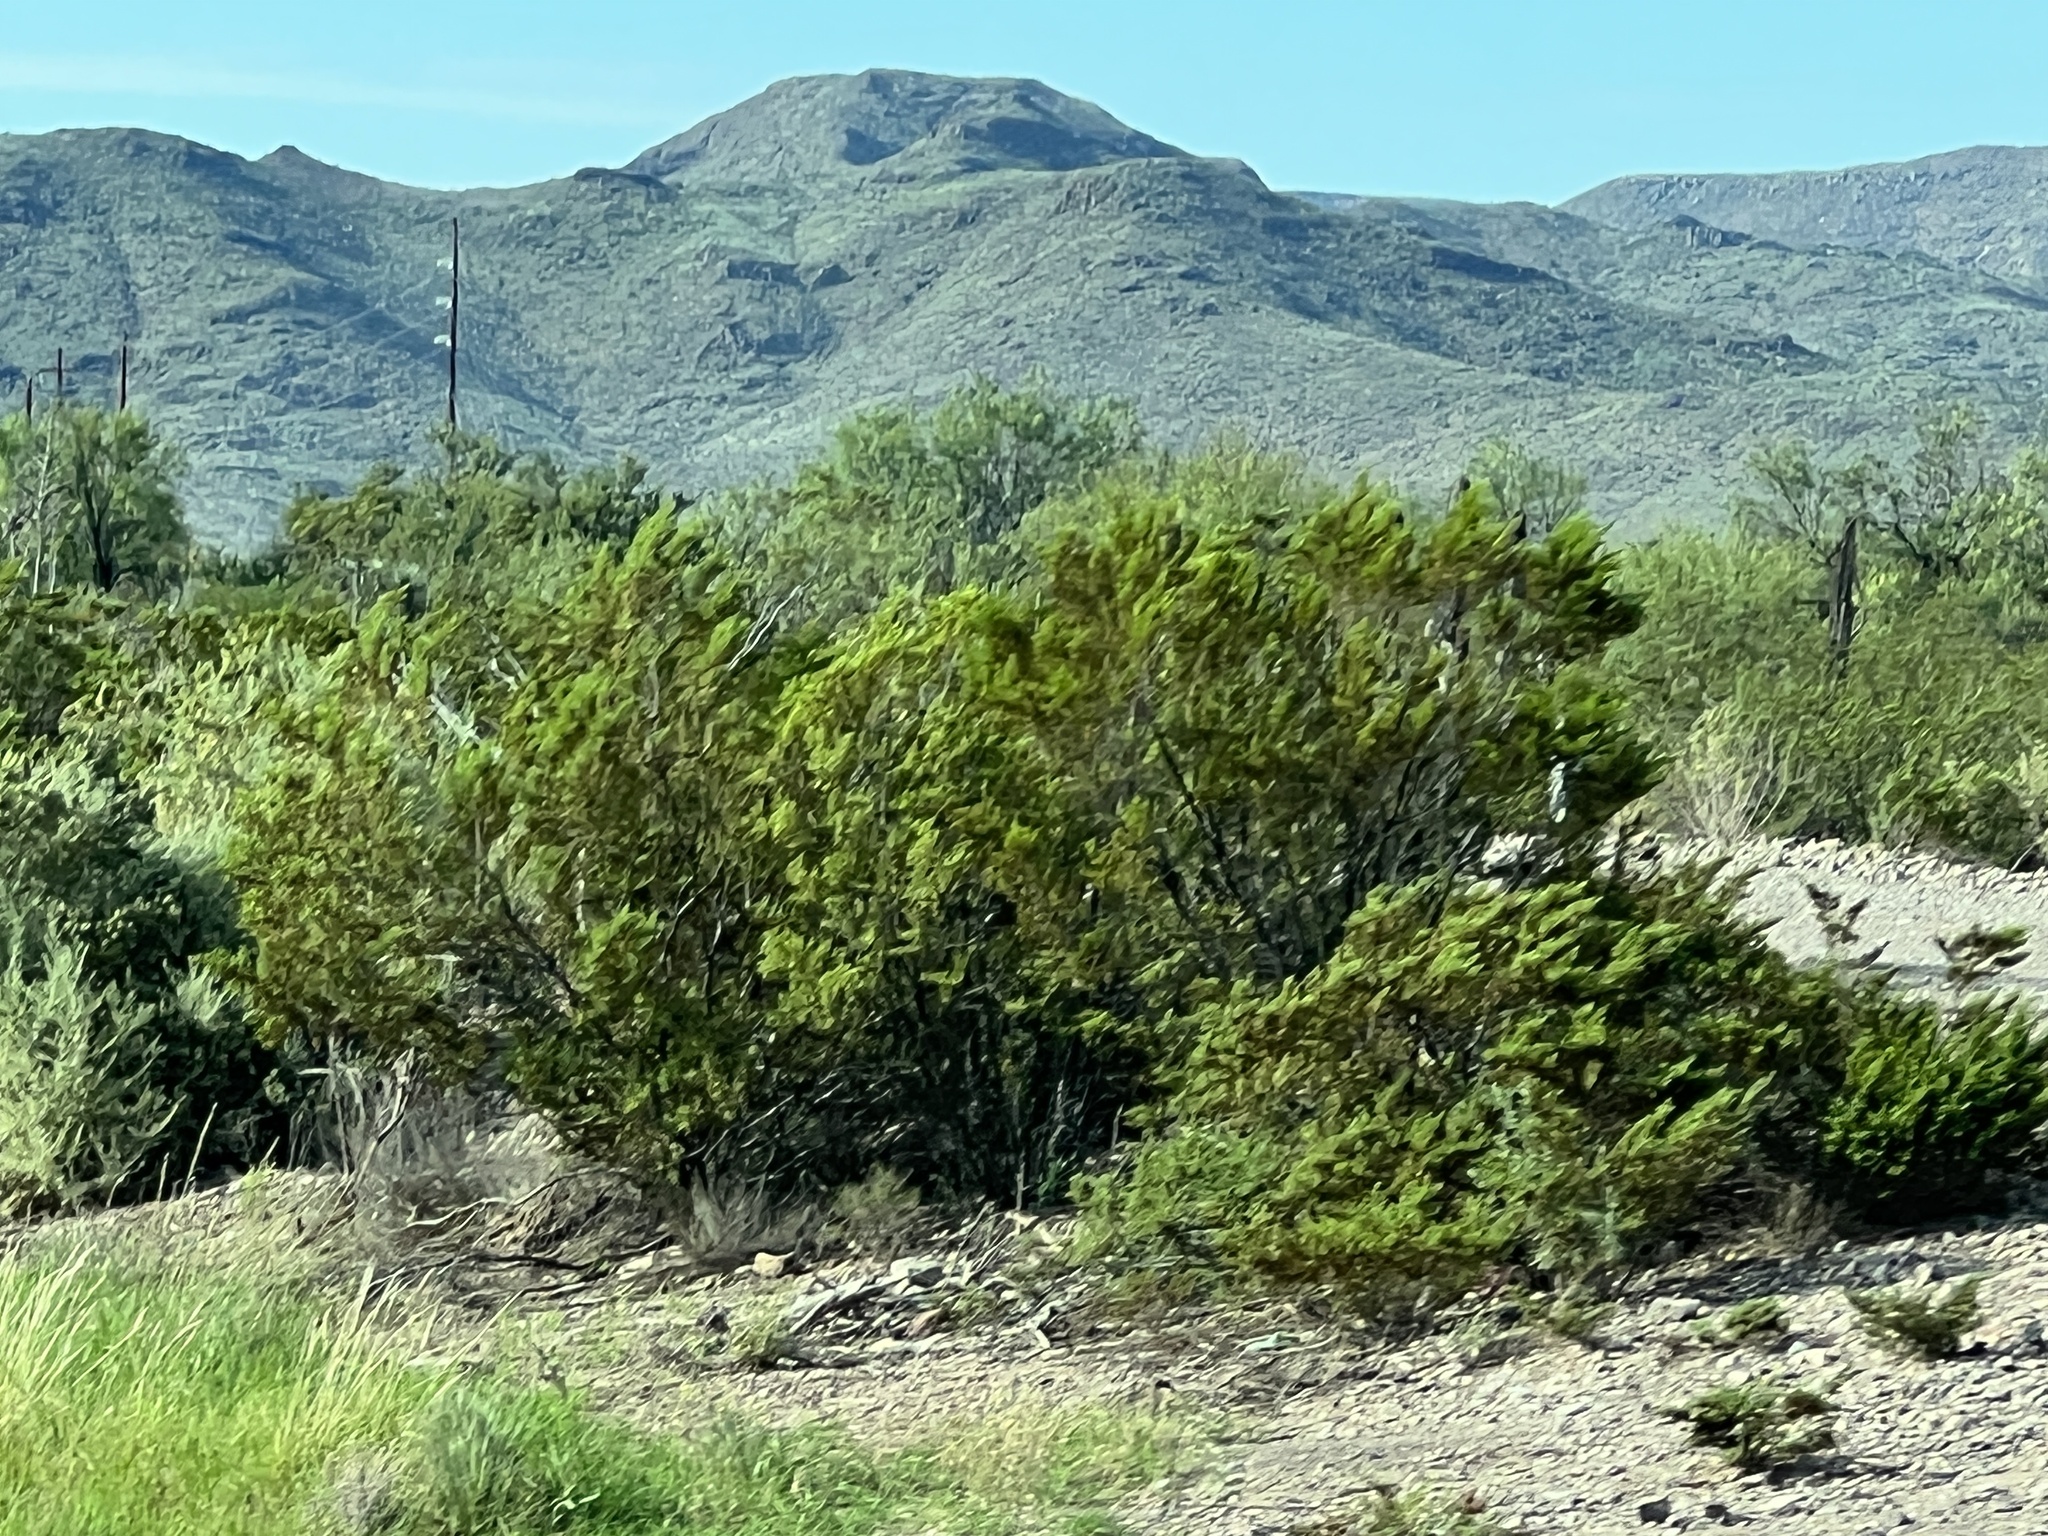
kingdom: Plantae
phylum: Tracheophyta
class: Magnoliopsida
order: Zygophyllales
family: Zygophyllaceae
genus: Larrea
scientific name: Larrea tridentata
